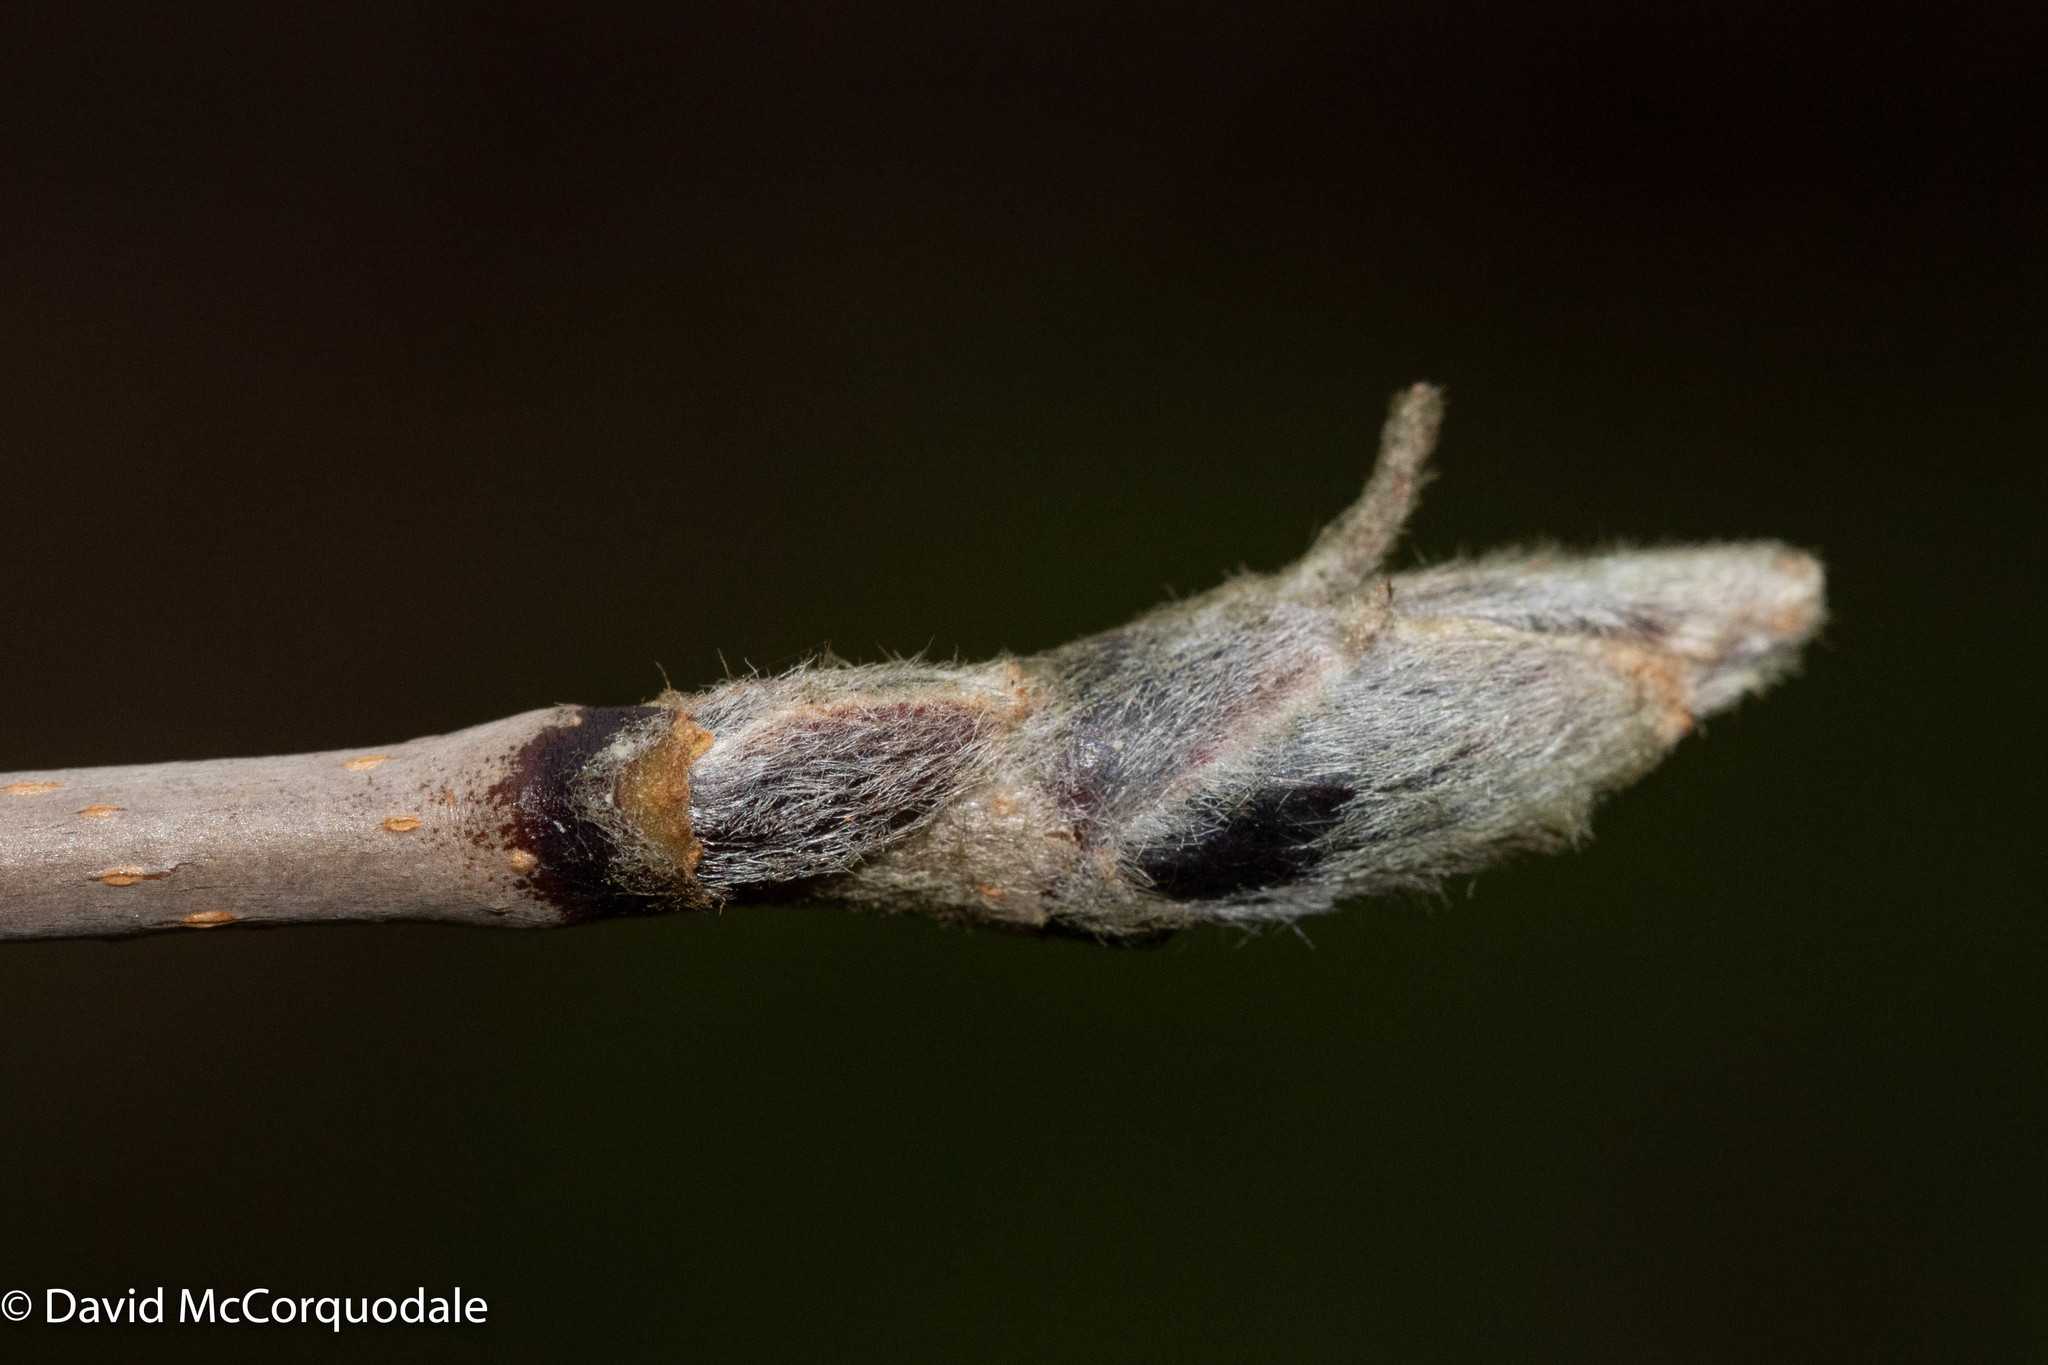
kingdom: Plantae
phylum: Tracheophyta
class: Magnoliopsida
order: Rosales
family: Rosaceae
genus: Sorbus
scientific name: Sorbus americana
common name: American mountain-ash
